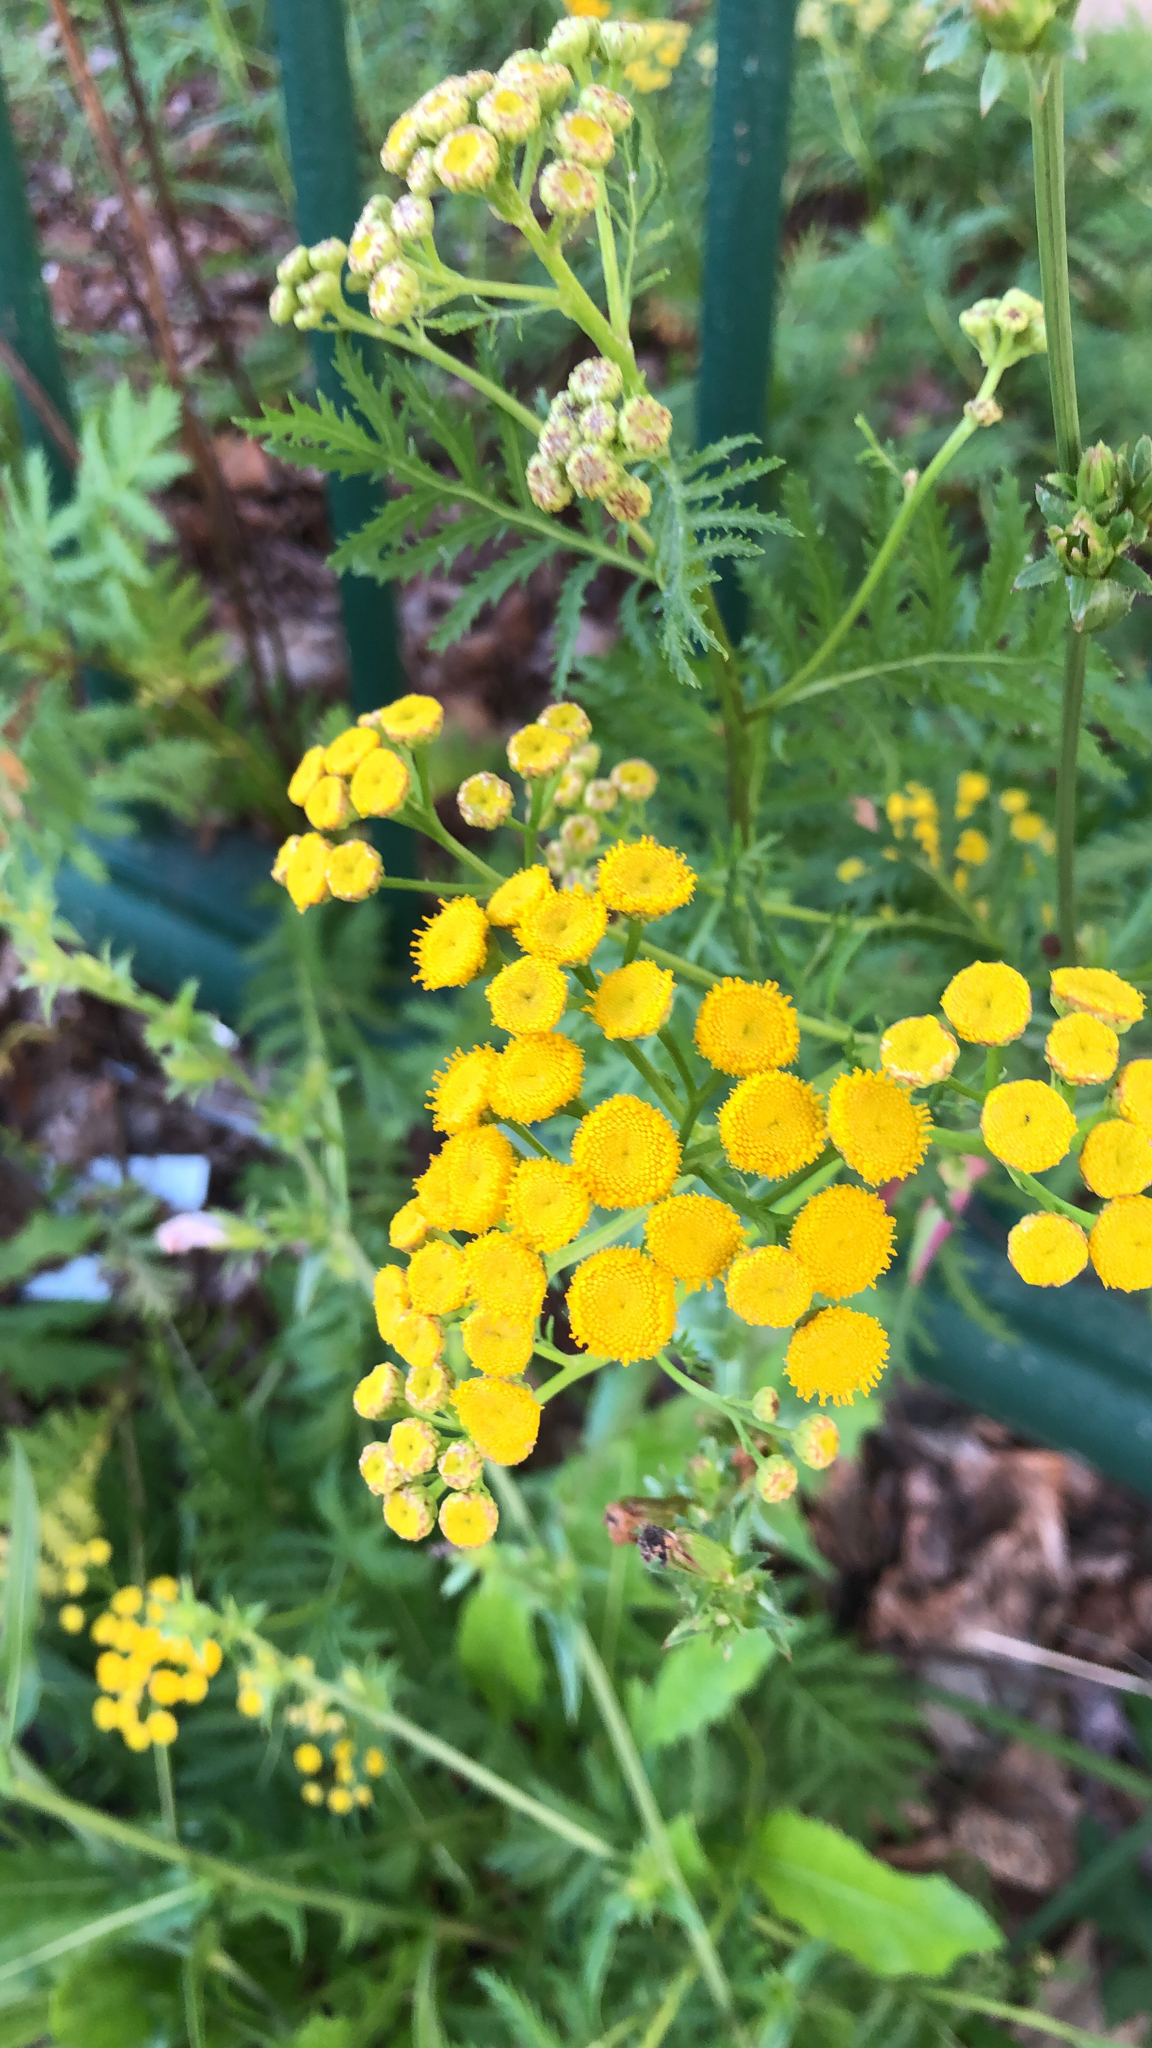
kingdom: Plantae
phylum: Tracheophyta
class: Magnoliopsida
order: Asterales
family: Asteraceae
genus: Tanacetum
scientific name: Tanacetum vulgare
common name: Common tansy
